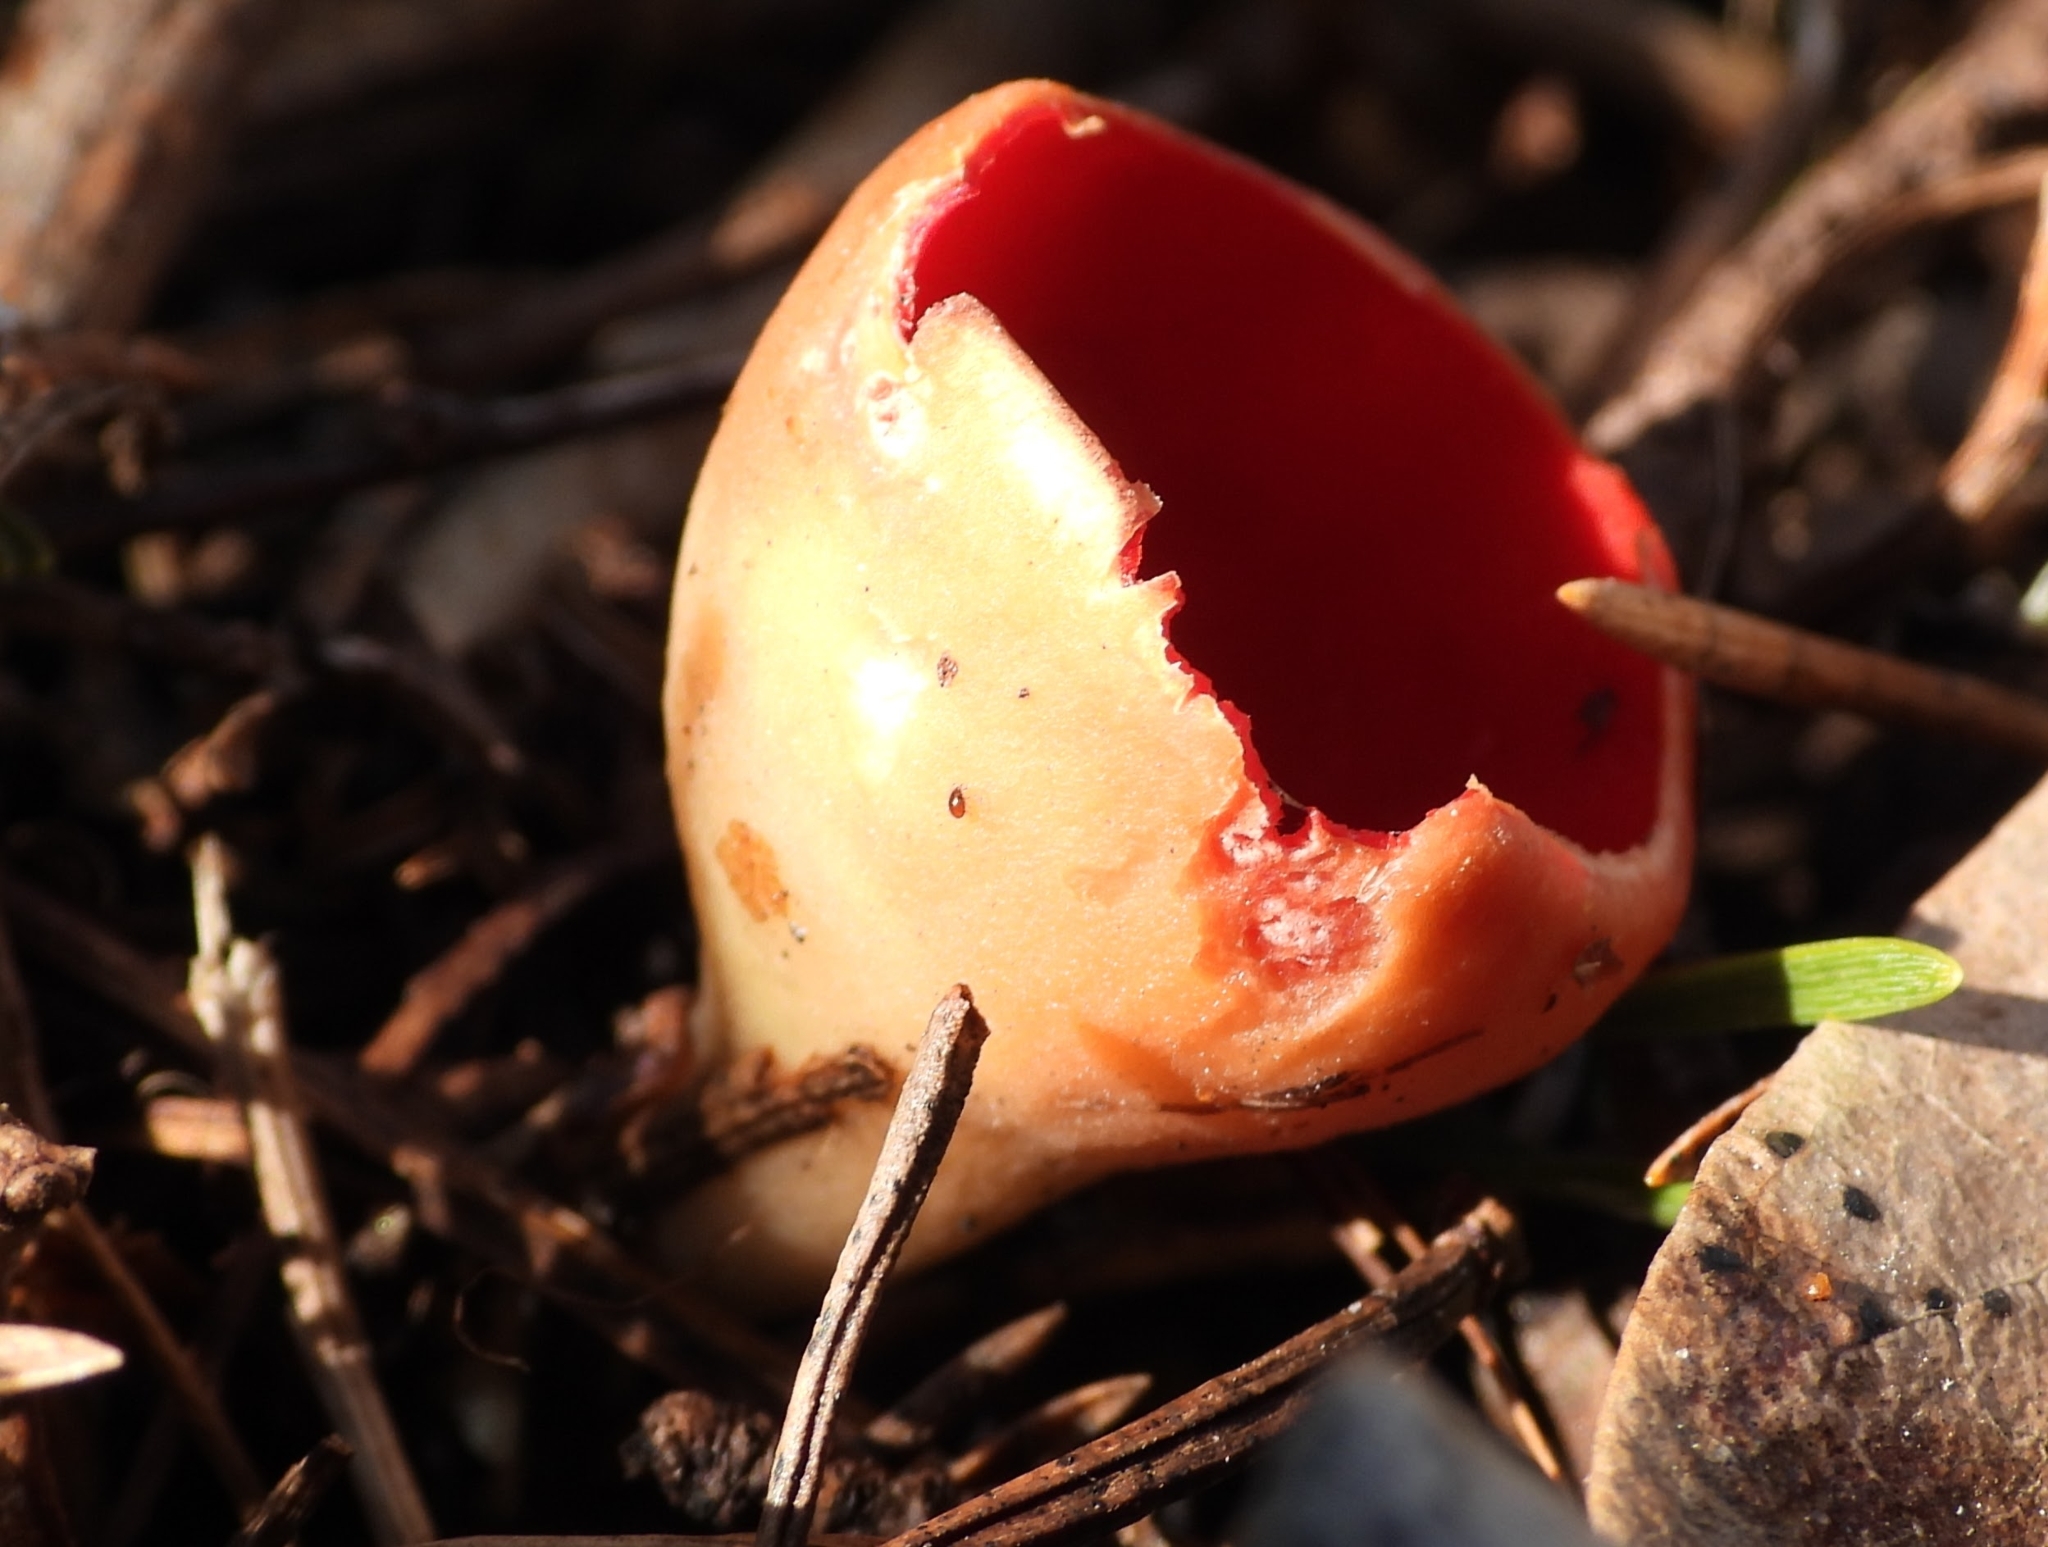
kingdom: Fungi
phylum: Ascomycota
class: Pezizomycetes
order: Pezizales
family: Sarcoscyphaceae
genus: Sarcoscypha
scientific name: Sarcoscypha austriaca
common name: Scarlet elfcup
